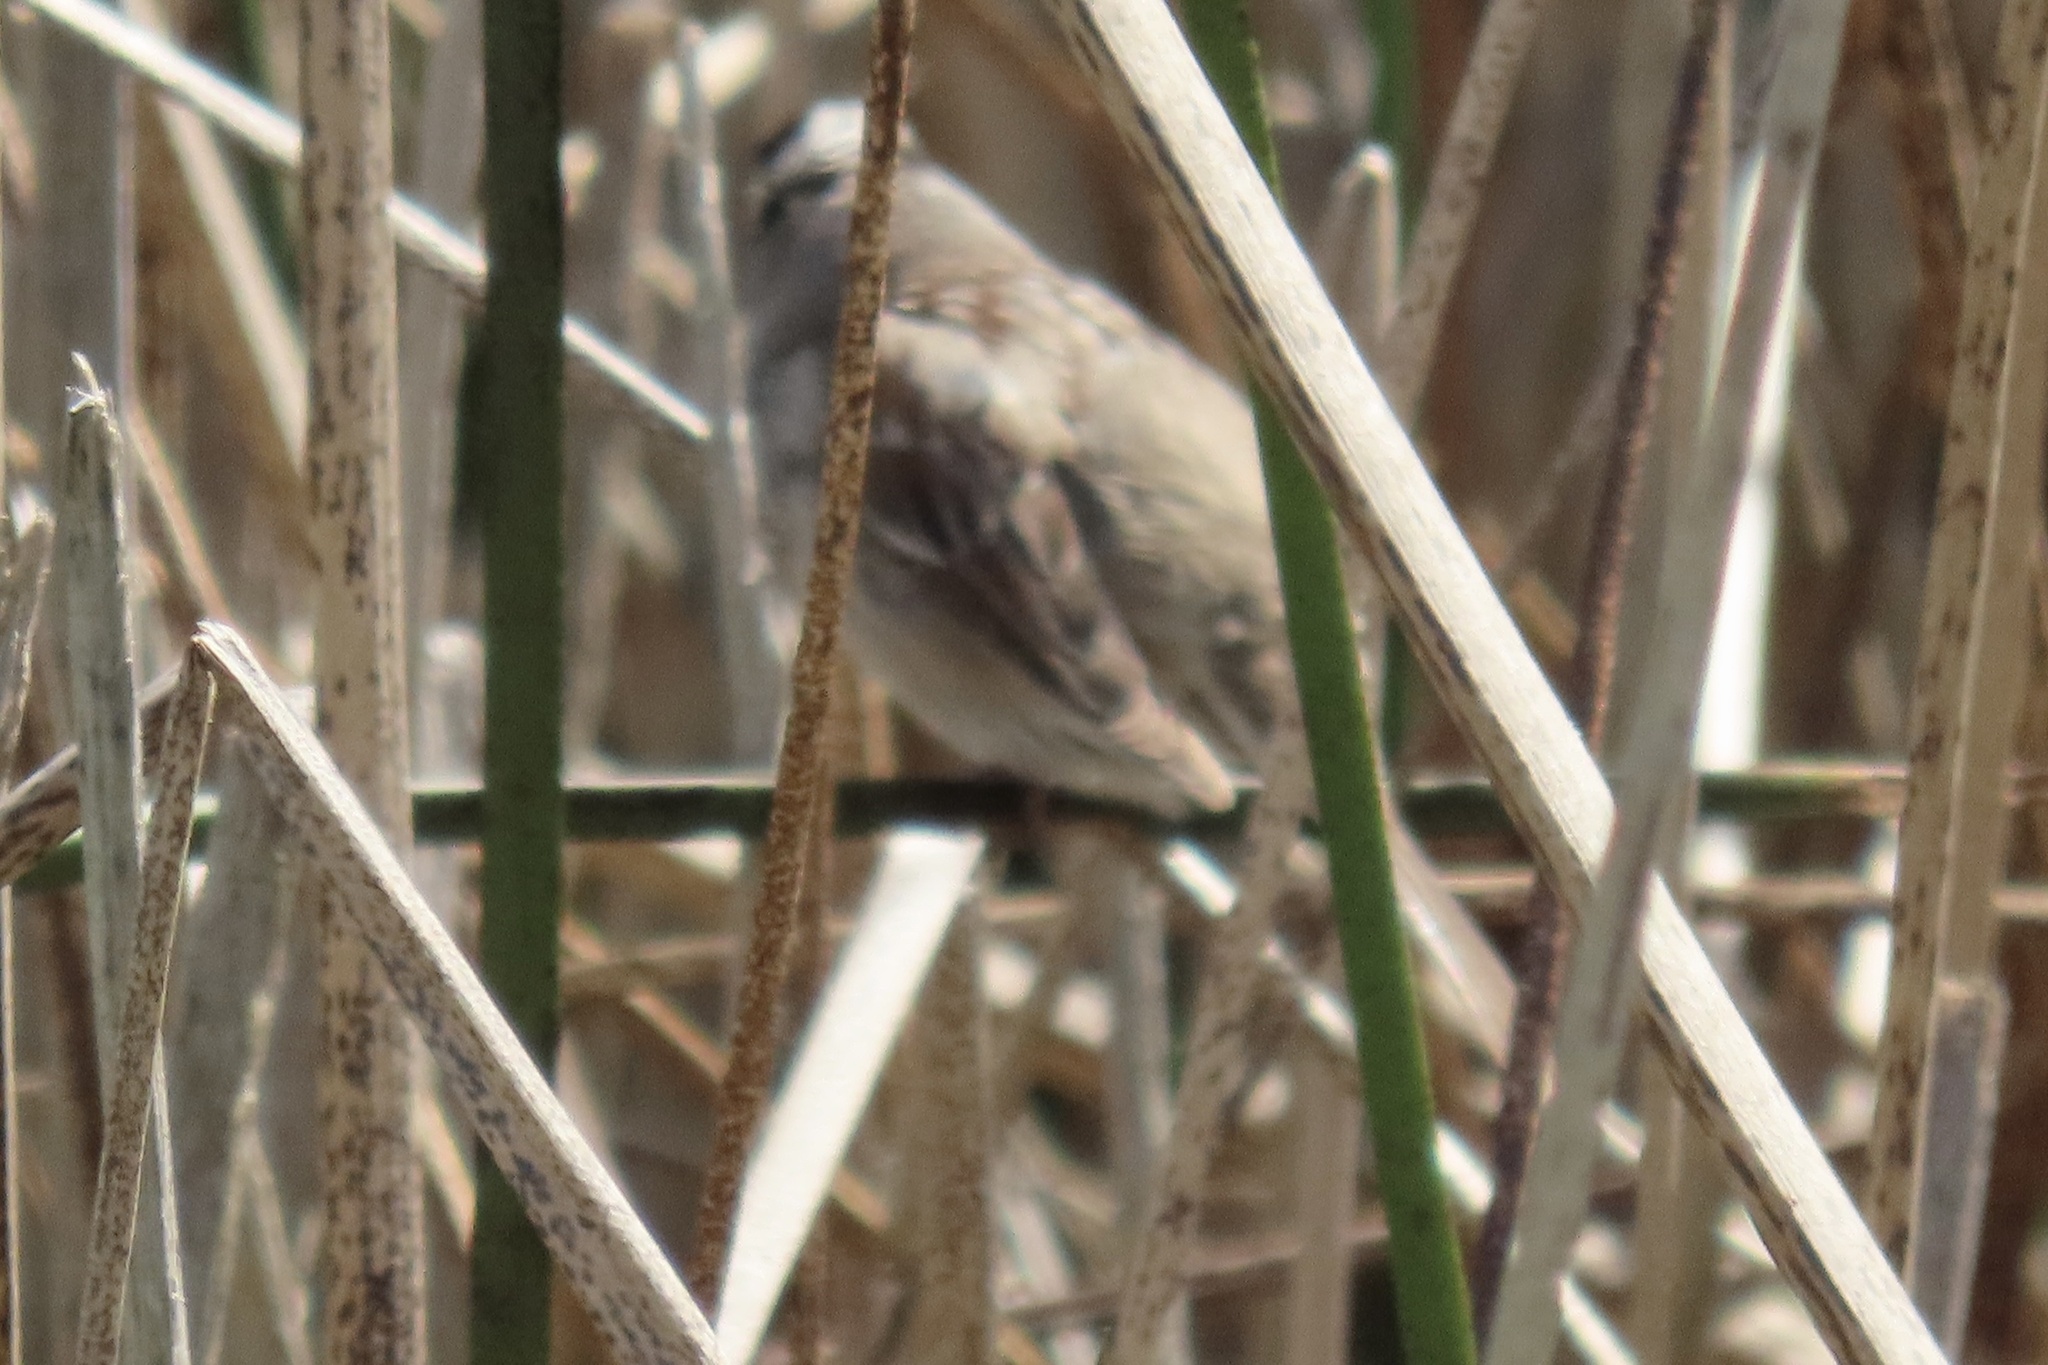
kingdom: Animalia
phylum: Chordata
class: Aves
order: Passeriformes
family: Passerellidae
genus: Zonotrichia
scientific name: Zonotrichia leucophrys
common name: White-crowned sparrow
